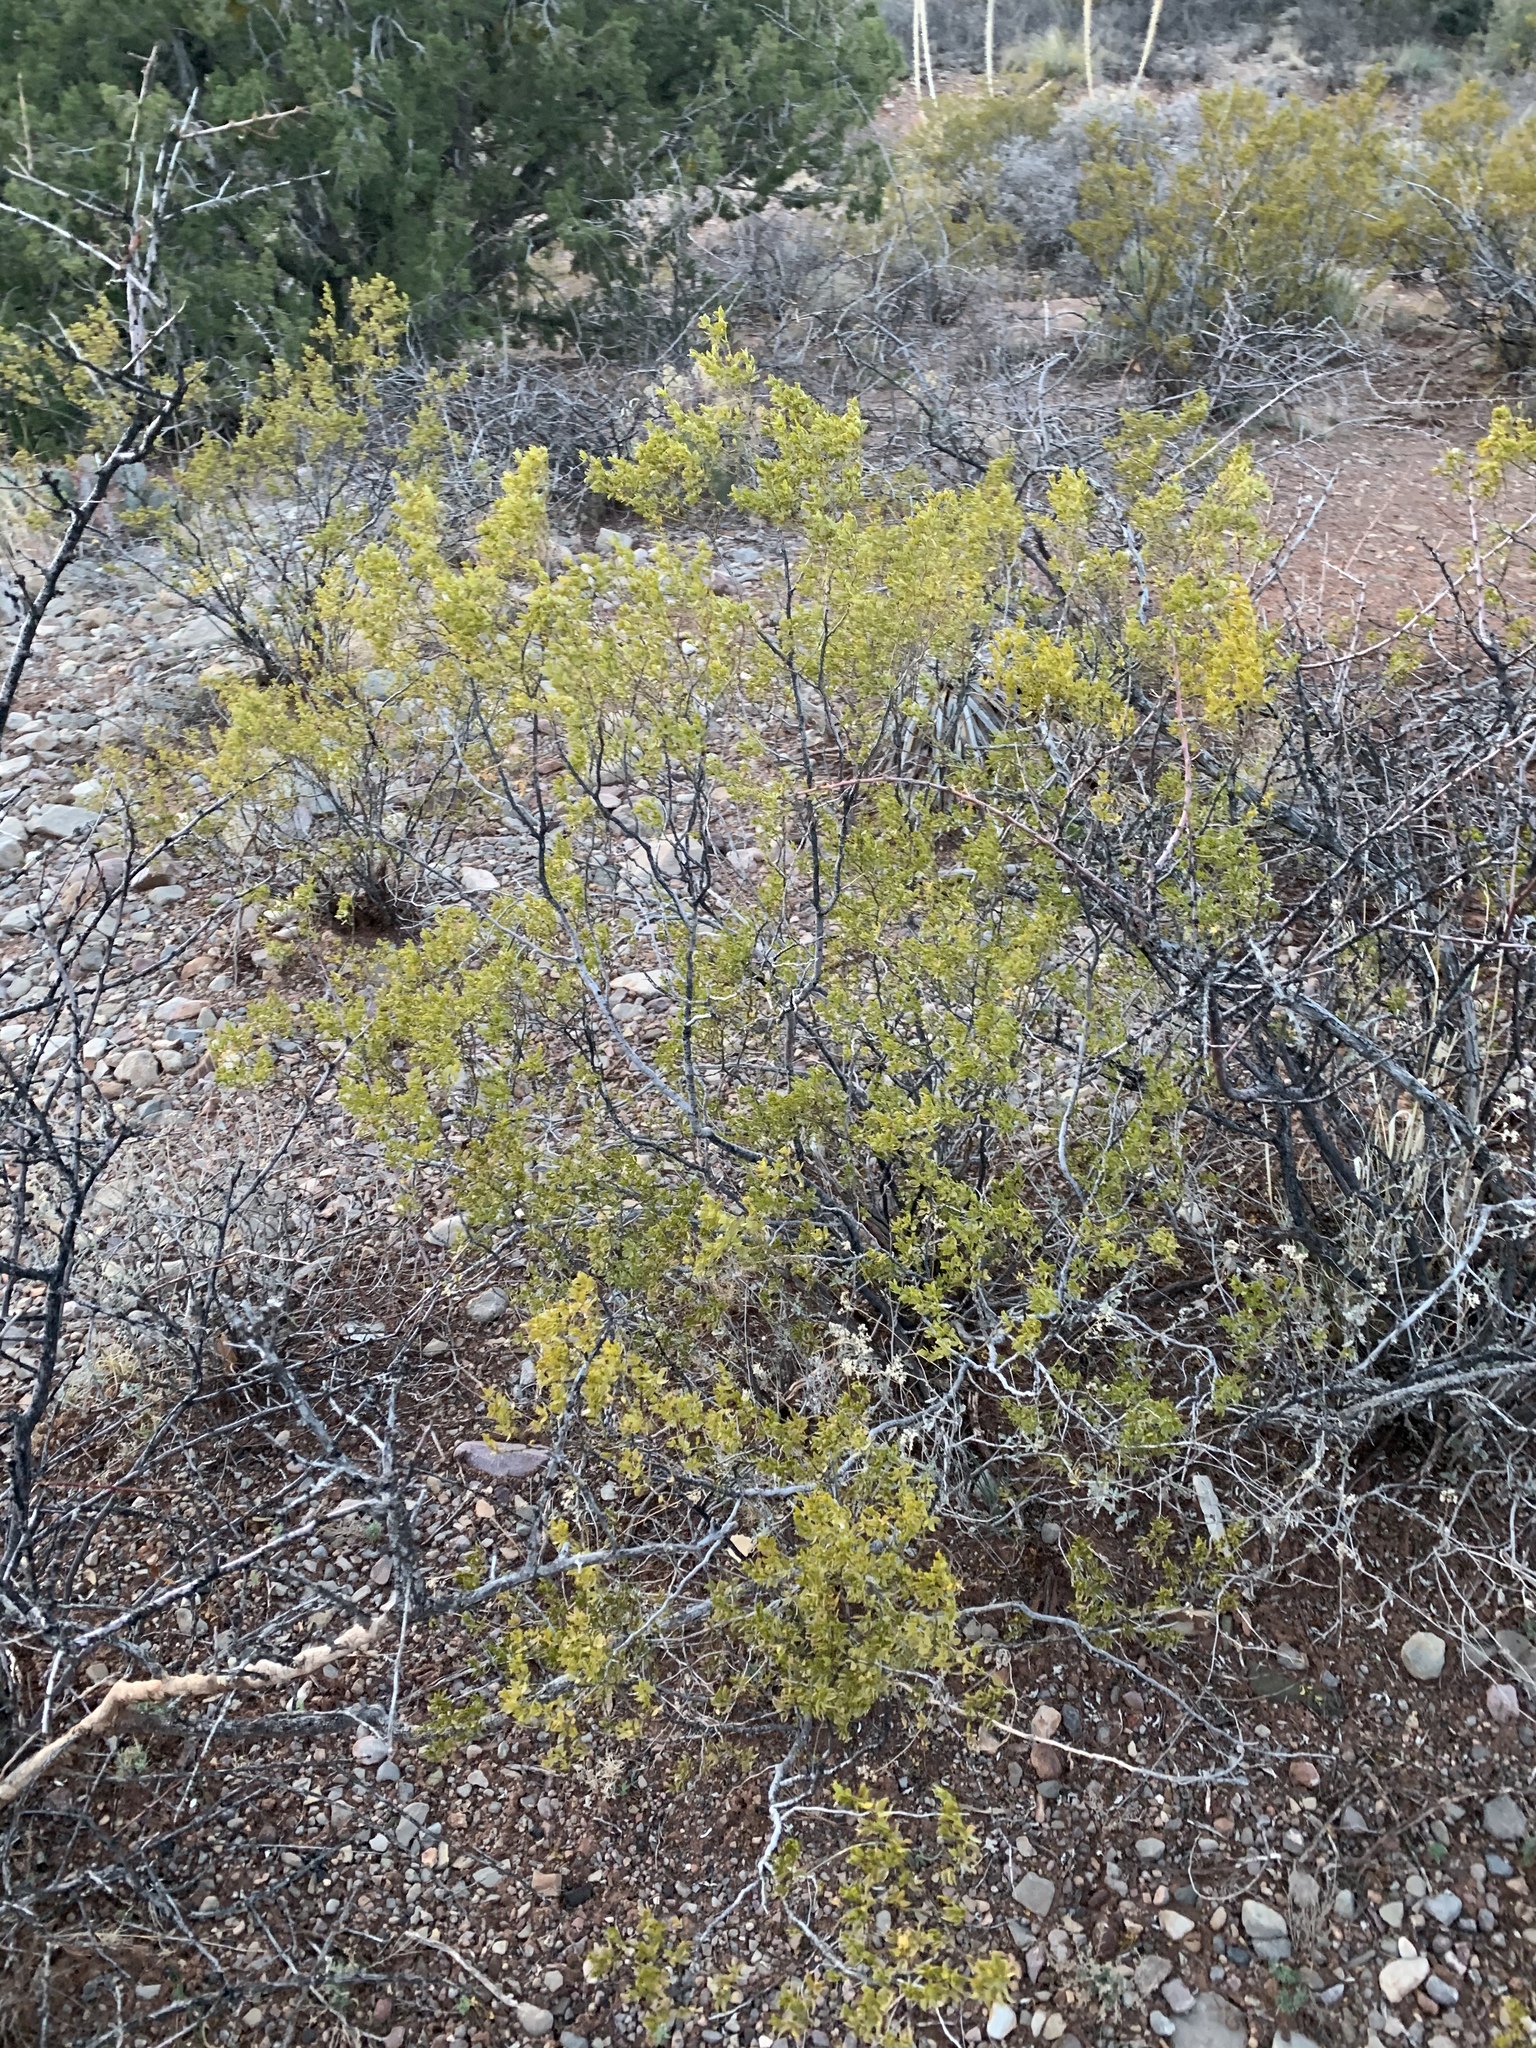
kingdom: Plantae
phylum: Tracheophyta
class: Magnoliopsida
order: Zygophyllales
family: Zygophyllaceae
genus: Larrea
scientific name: Larrea tridentata
